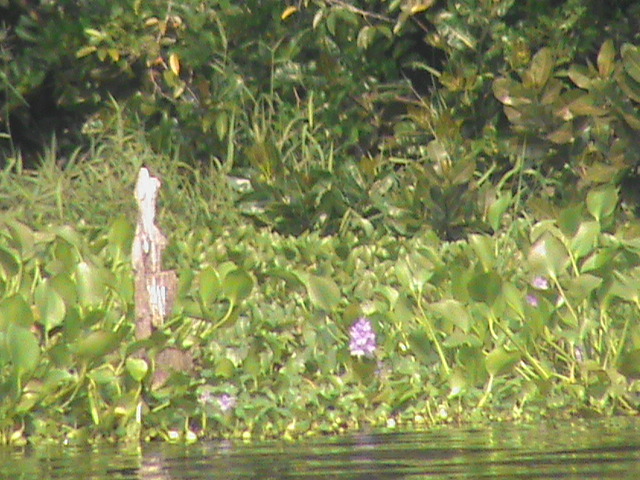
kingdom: Plantae
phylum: Tracheophyta
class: Liliopsida
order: Commelinales
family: Pontederiaceae
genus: Pontederia
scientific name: Pontederia crassipes
